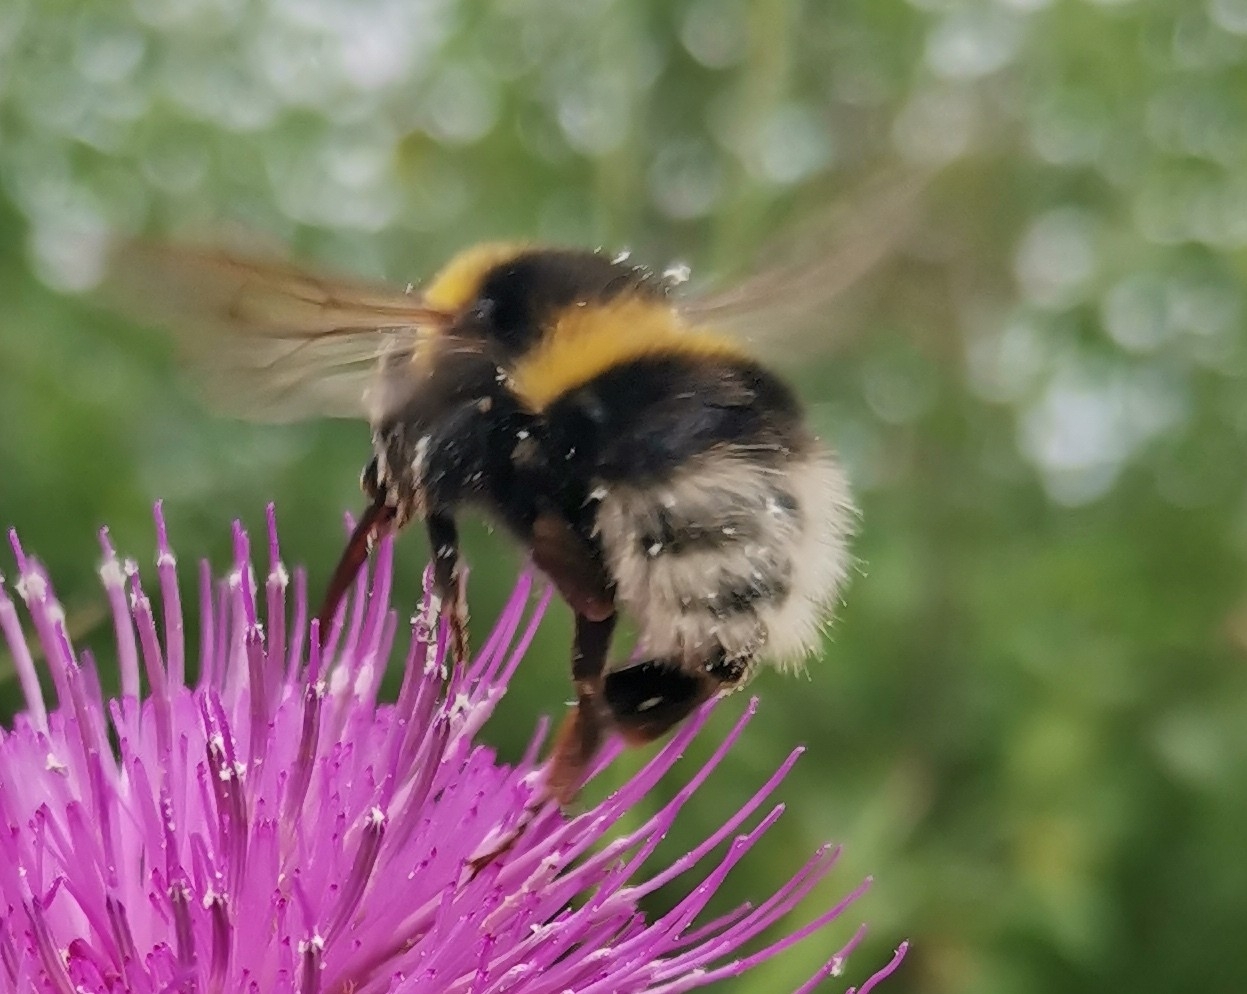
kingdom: Animalia
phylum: Arthropoda
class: Insecta
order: Hymenoptera
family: Apidae
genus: Bombus
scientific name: Bombus hortorum
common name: Garden bumblebee
